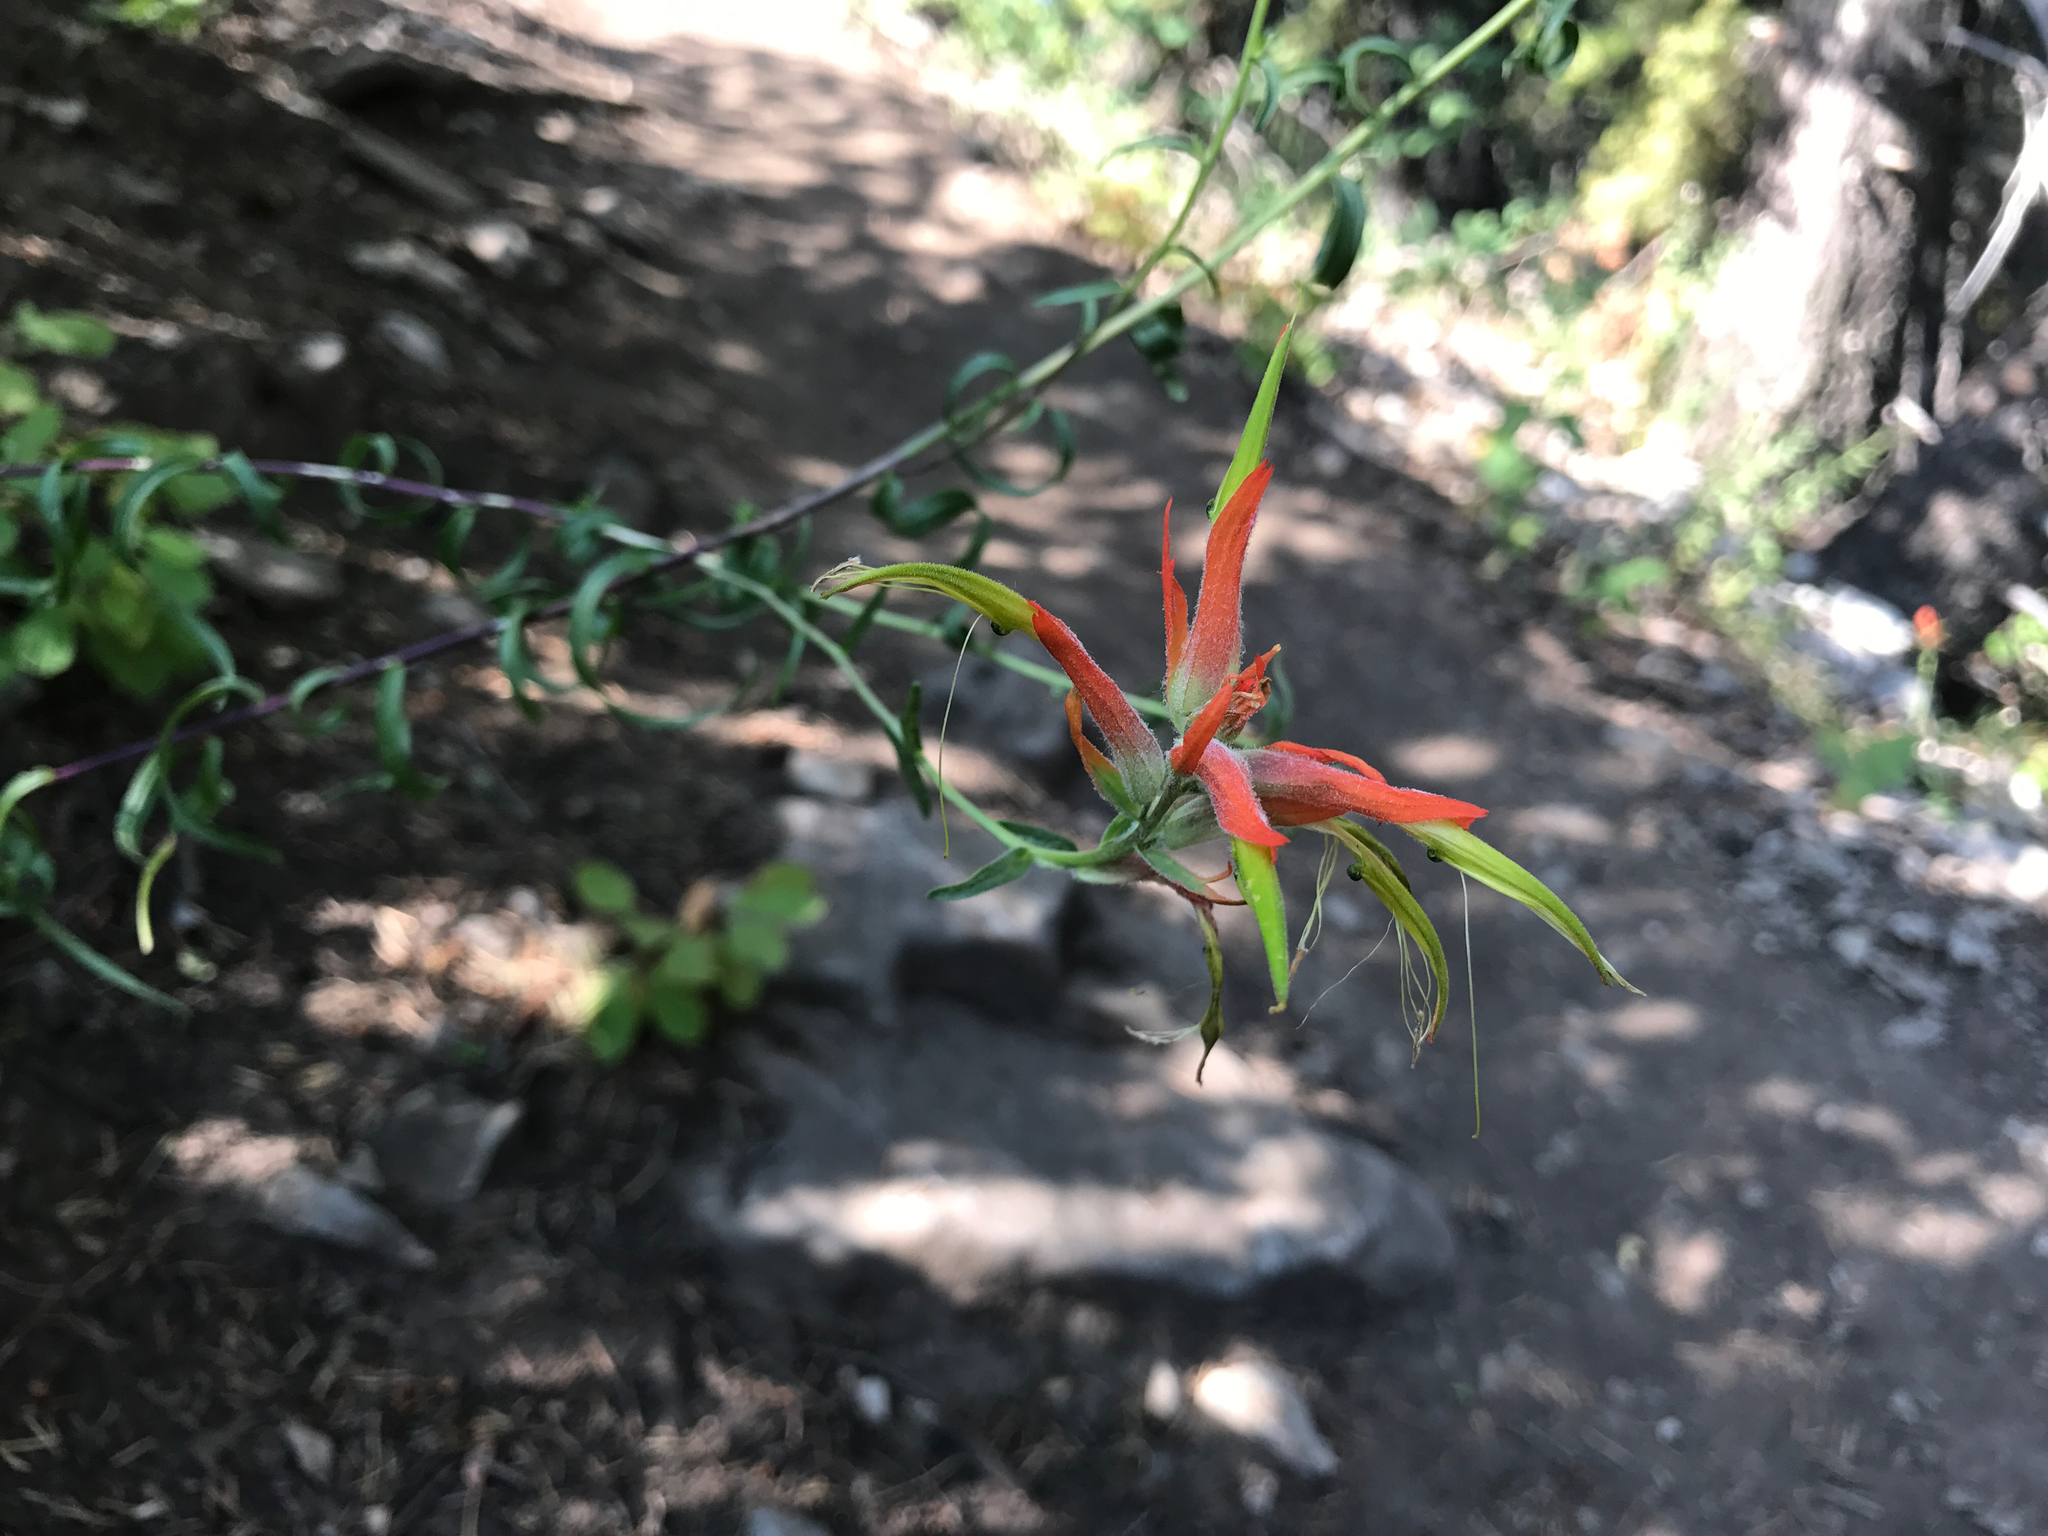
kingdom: Plantae
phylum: Tracheophyta
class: Magnoliopsida
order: Lamiales
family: Orobanchaceae
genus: Castilleja
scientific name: Castilleja linariifolia
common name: Wyoming paintbrush
